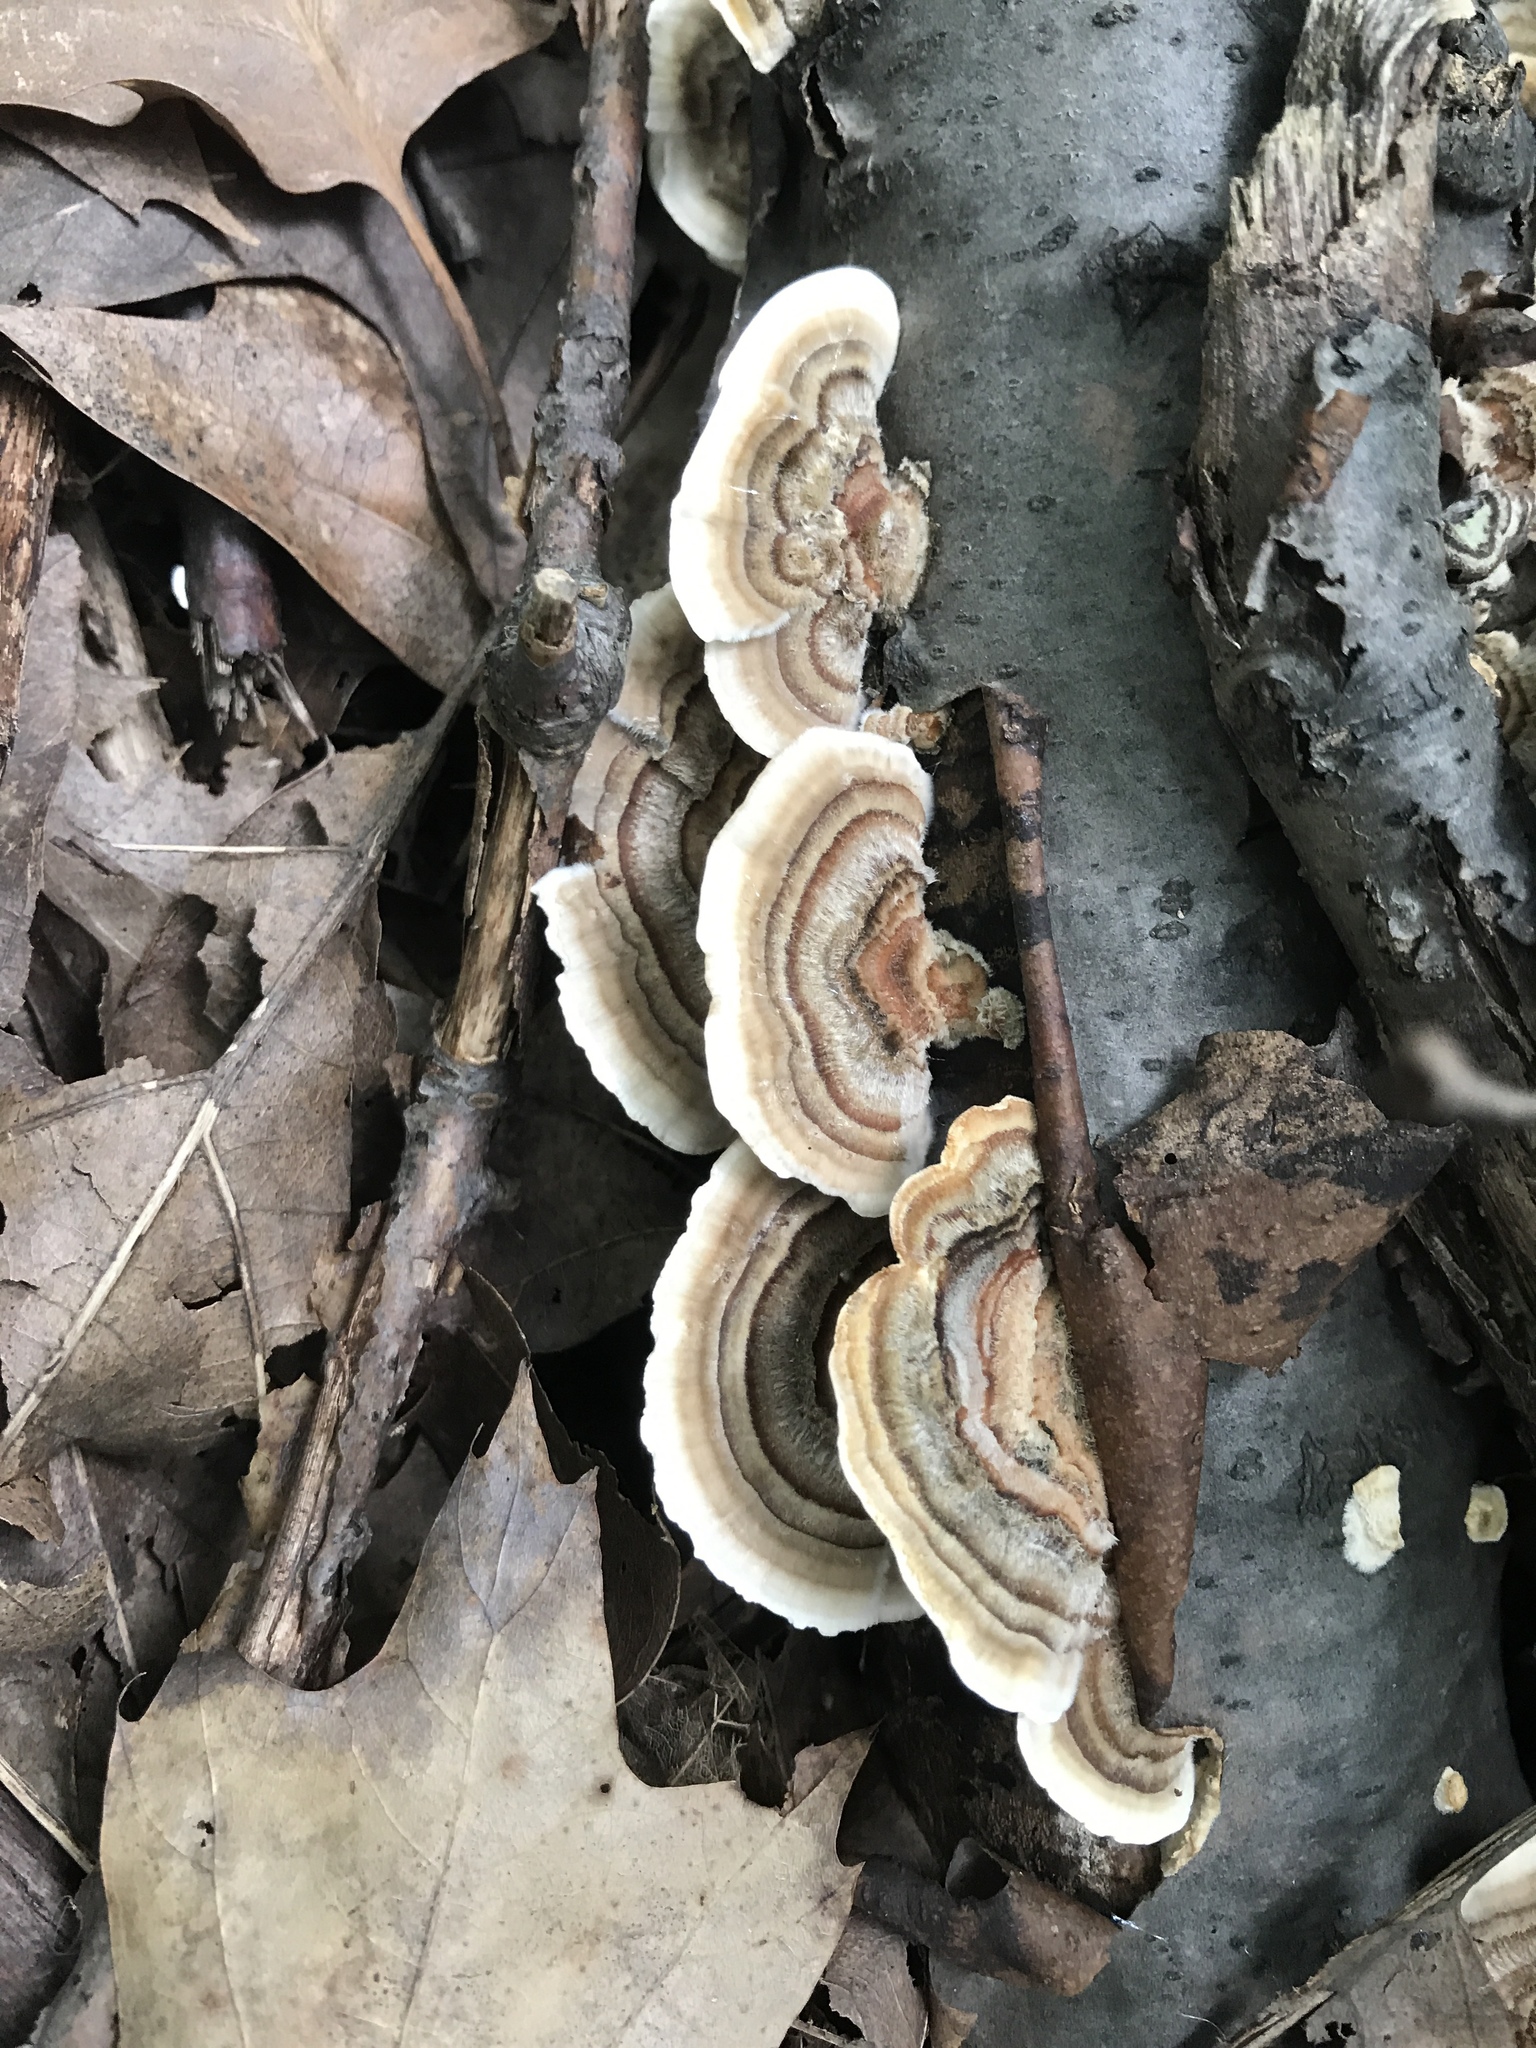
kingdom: Fungi
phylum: Basidiomycota
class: Agaricomycetes
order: Polyporales
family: Polyporaceae
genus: Trametes
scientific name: Trametes versicolor
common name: Turkeytail
